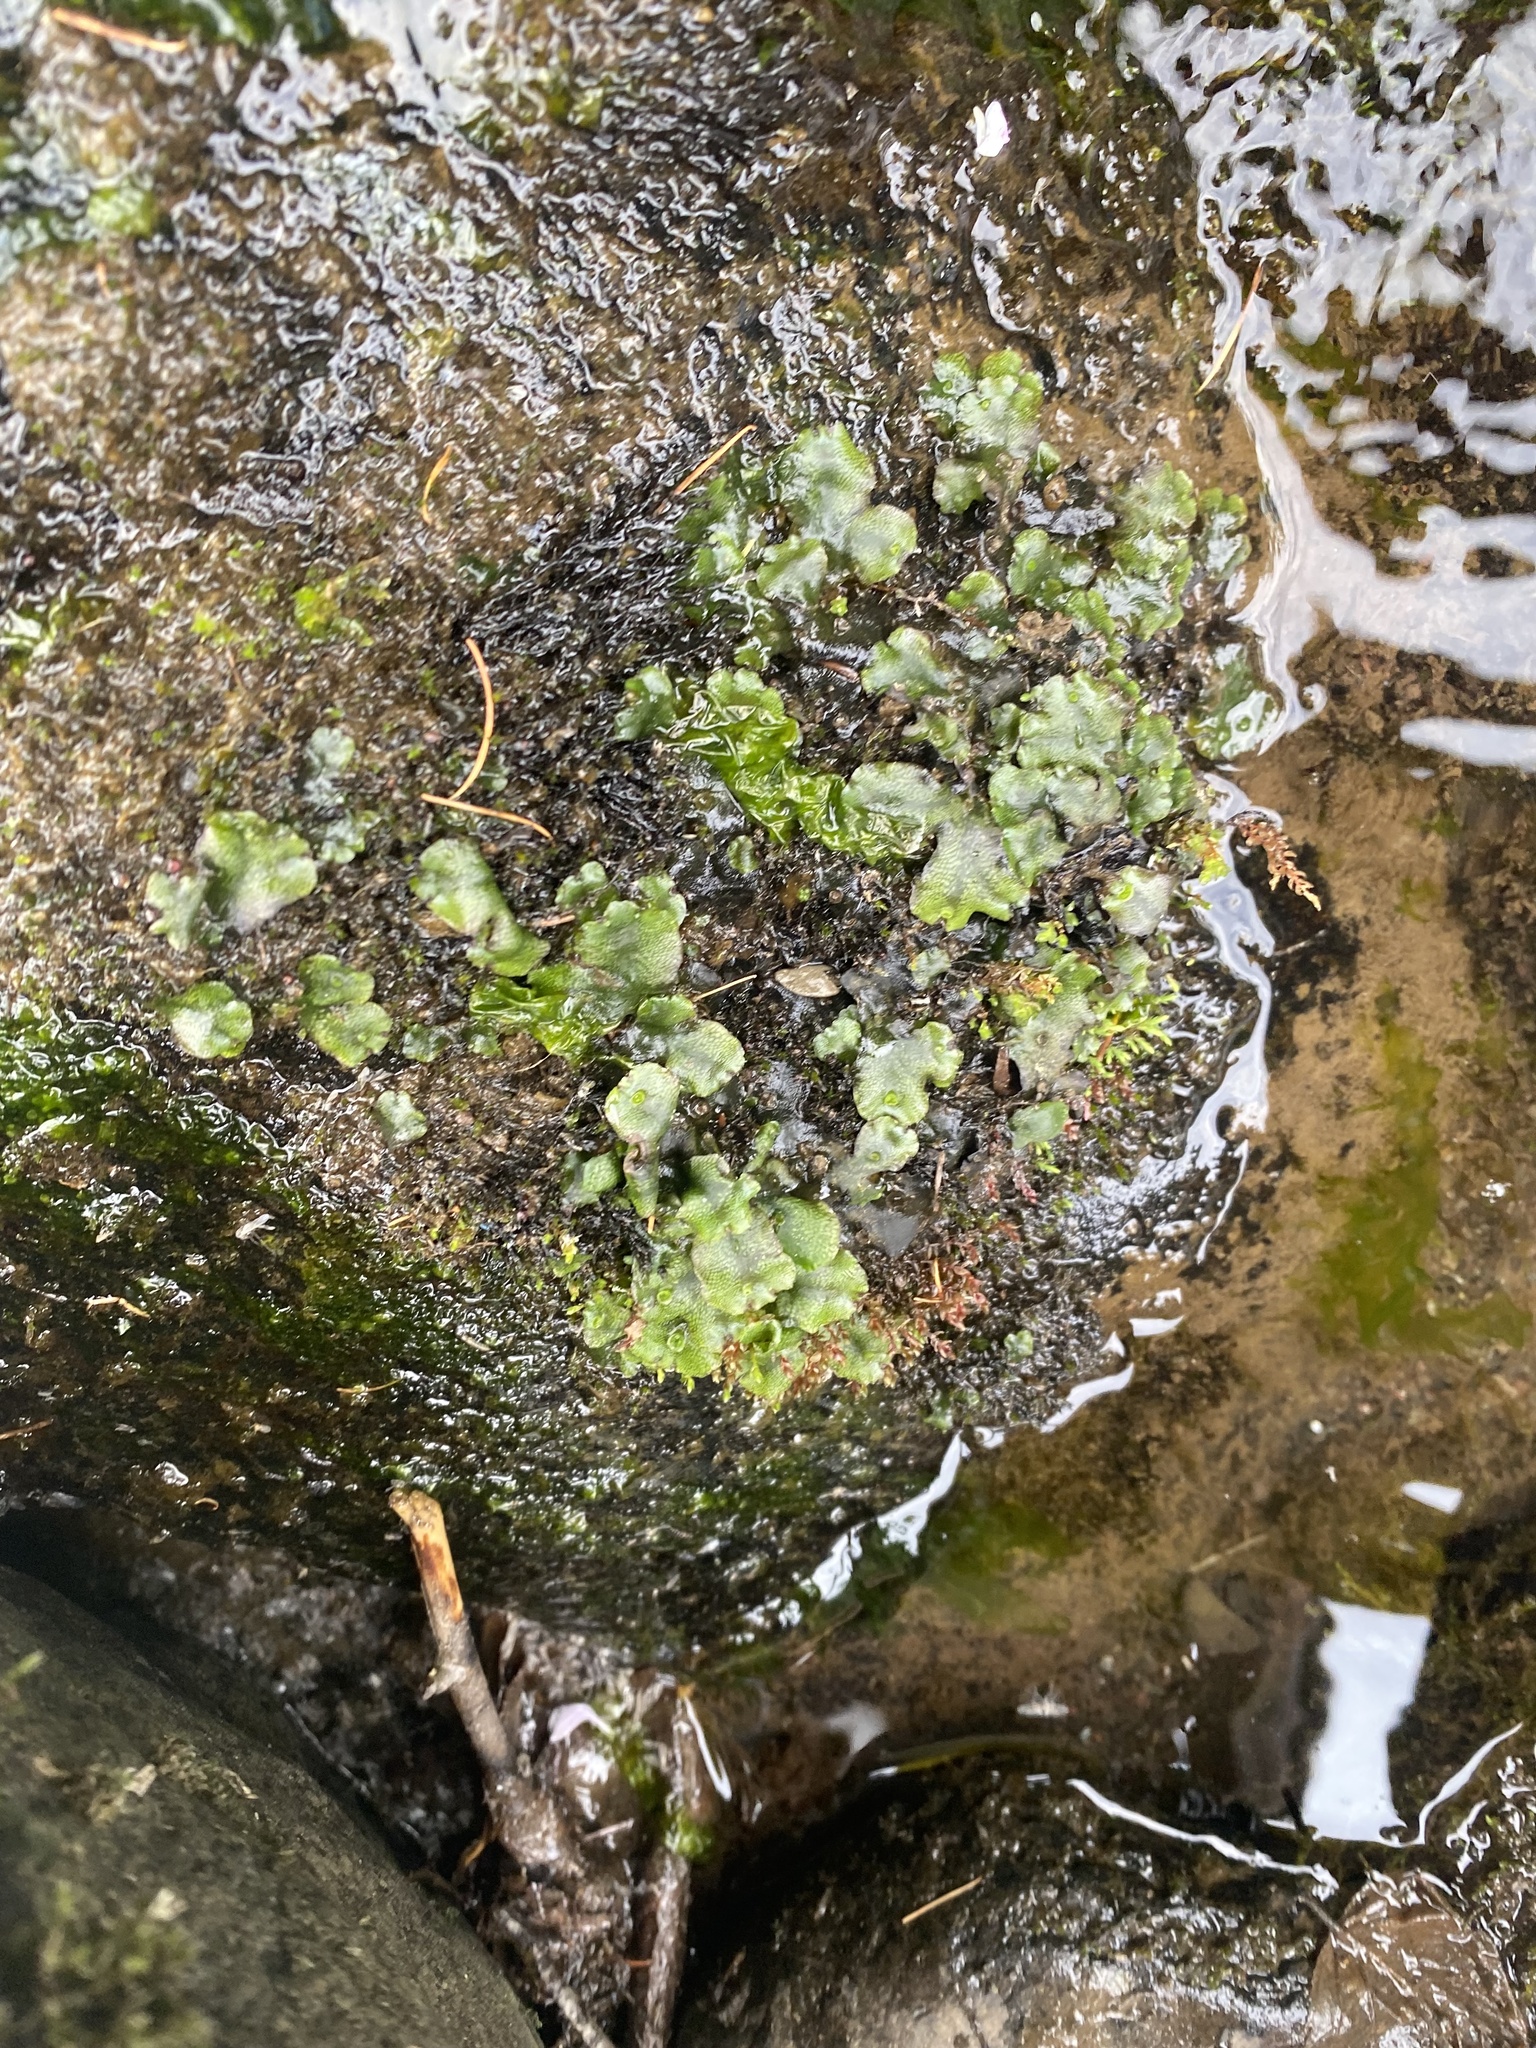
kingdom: Plantae
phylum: Marchantiophyta
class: Marchantiopsida
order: Marchantiales
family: Marchantiaceae
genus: Marchantia
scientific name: Marchantia polymorpha
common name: Common liverwort
